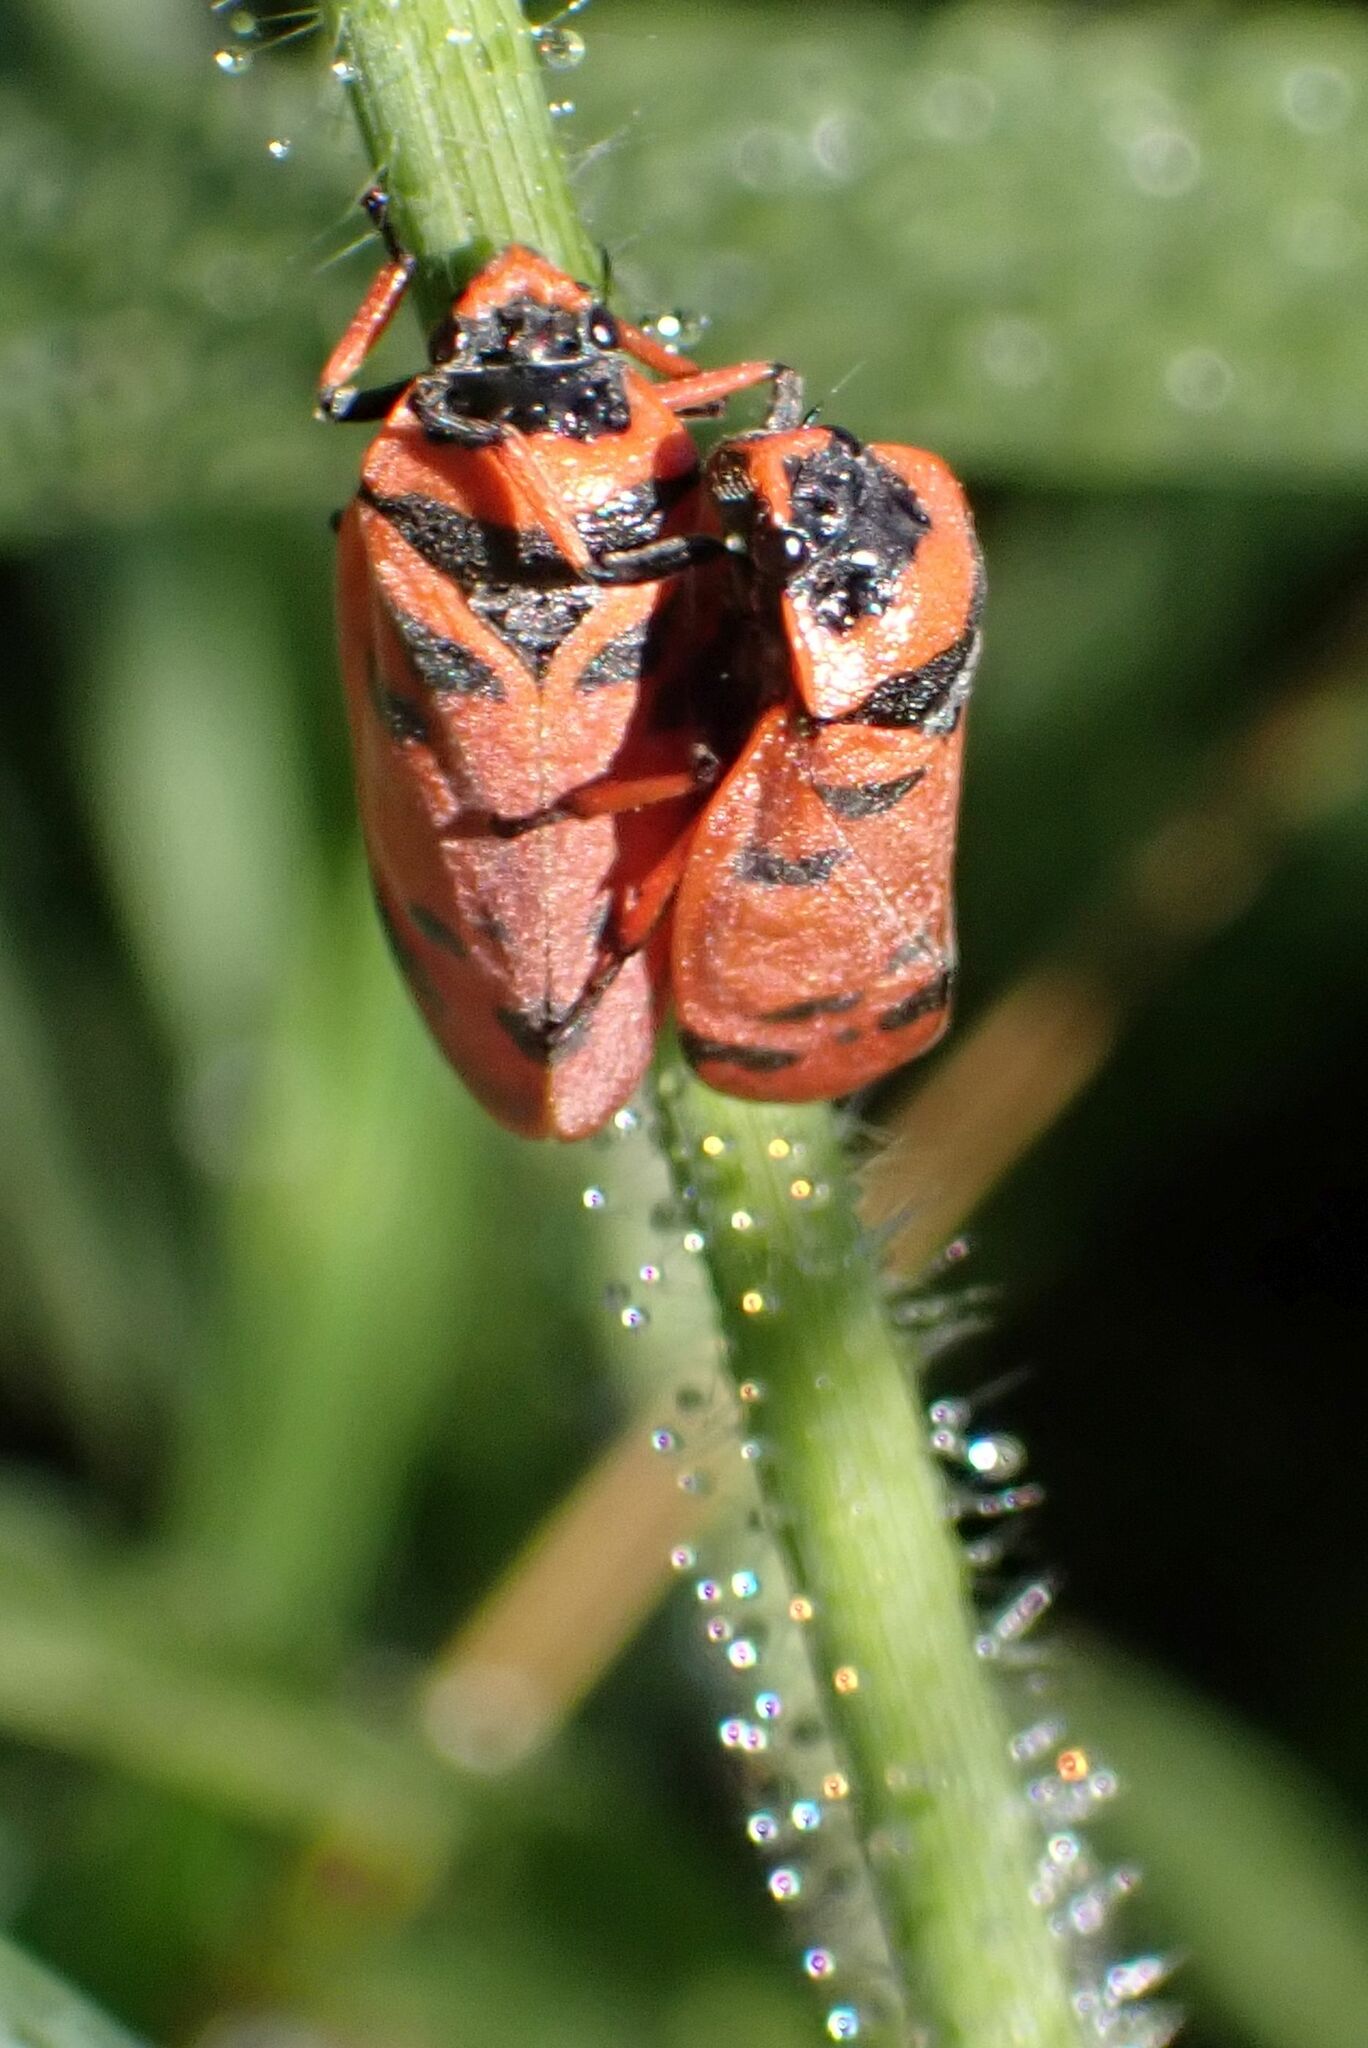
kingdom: Animalia
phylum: Arthropoda
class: Insecta
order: Hemiptera
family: Cercopidae
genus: Locris
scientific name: Locris arithmetica
